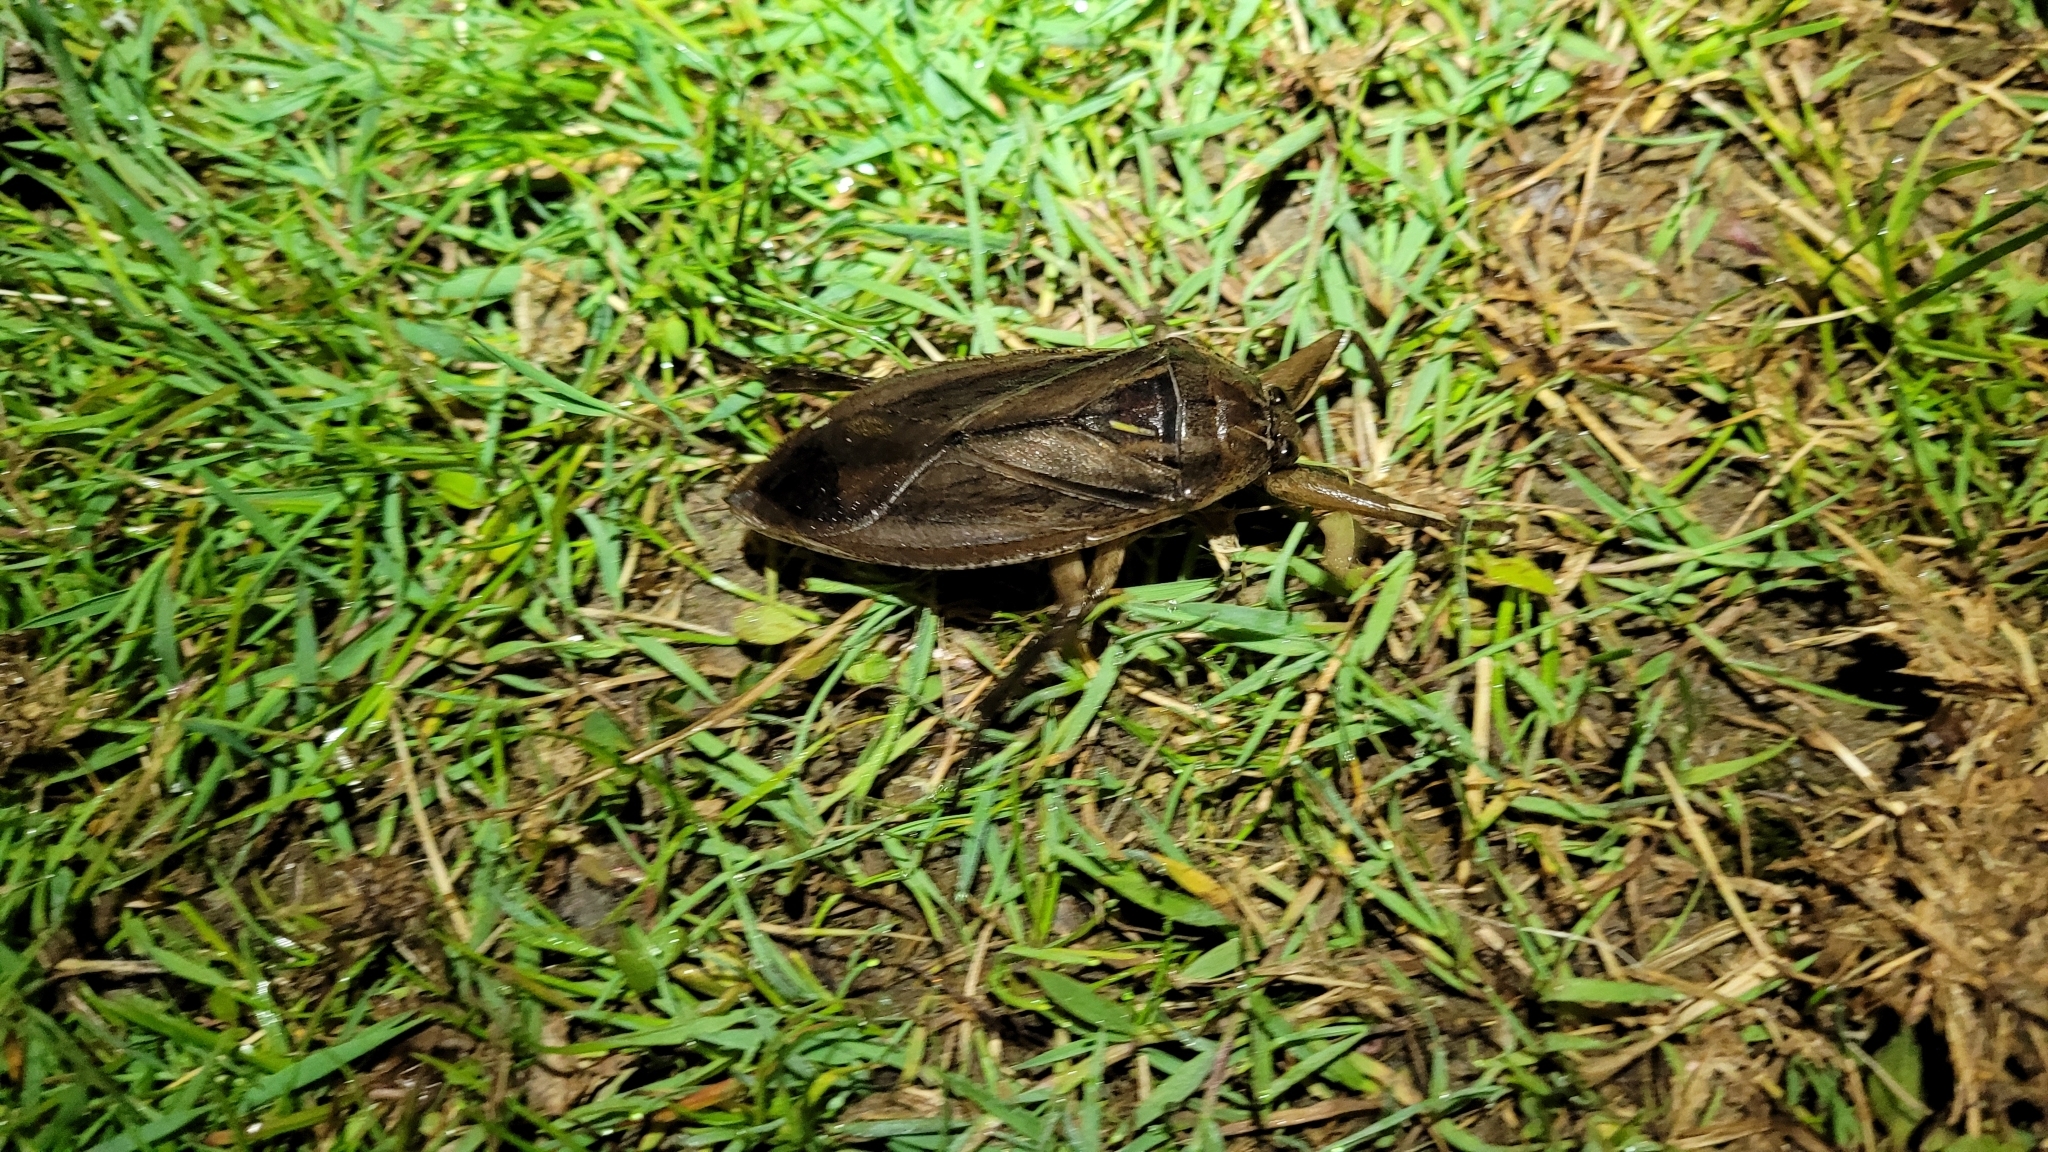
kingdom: Animalia
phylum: Arthropoda
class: Insecta
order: Hemiptera
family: Belostomatidae
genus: Lethocerus
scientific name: Lethocerus americanus
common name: Giant water bug
